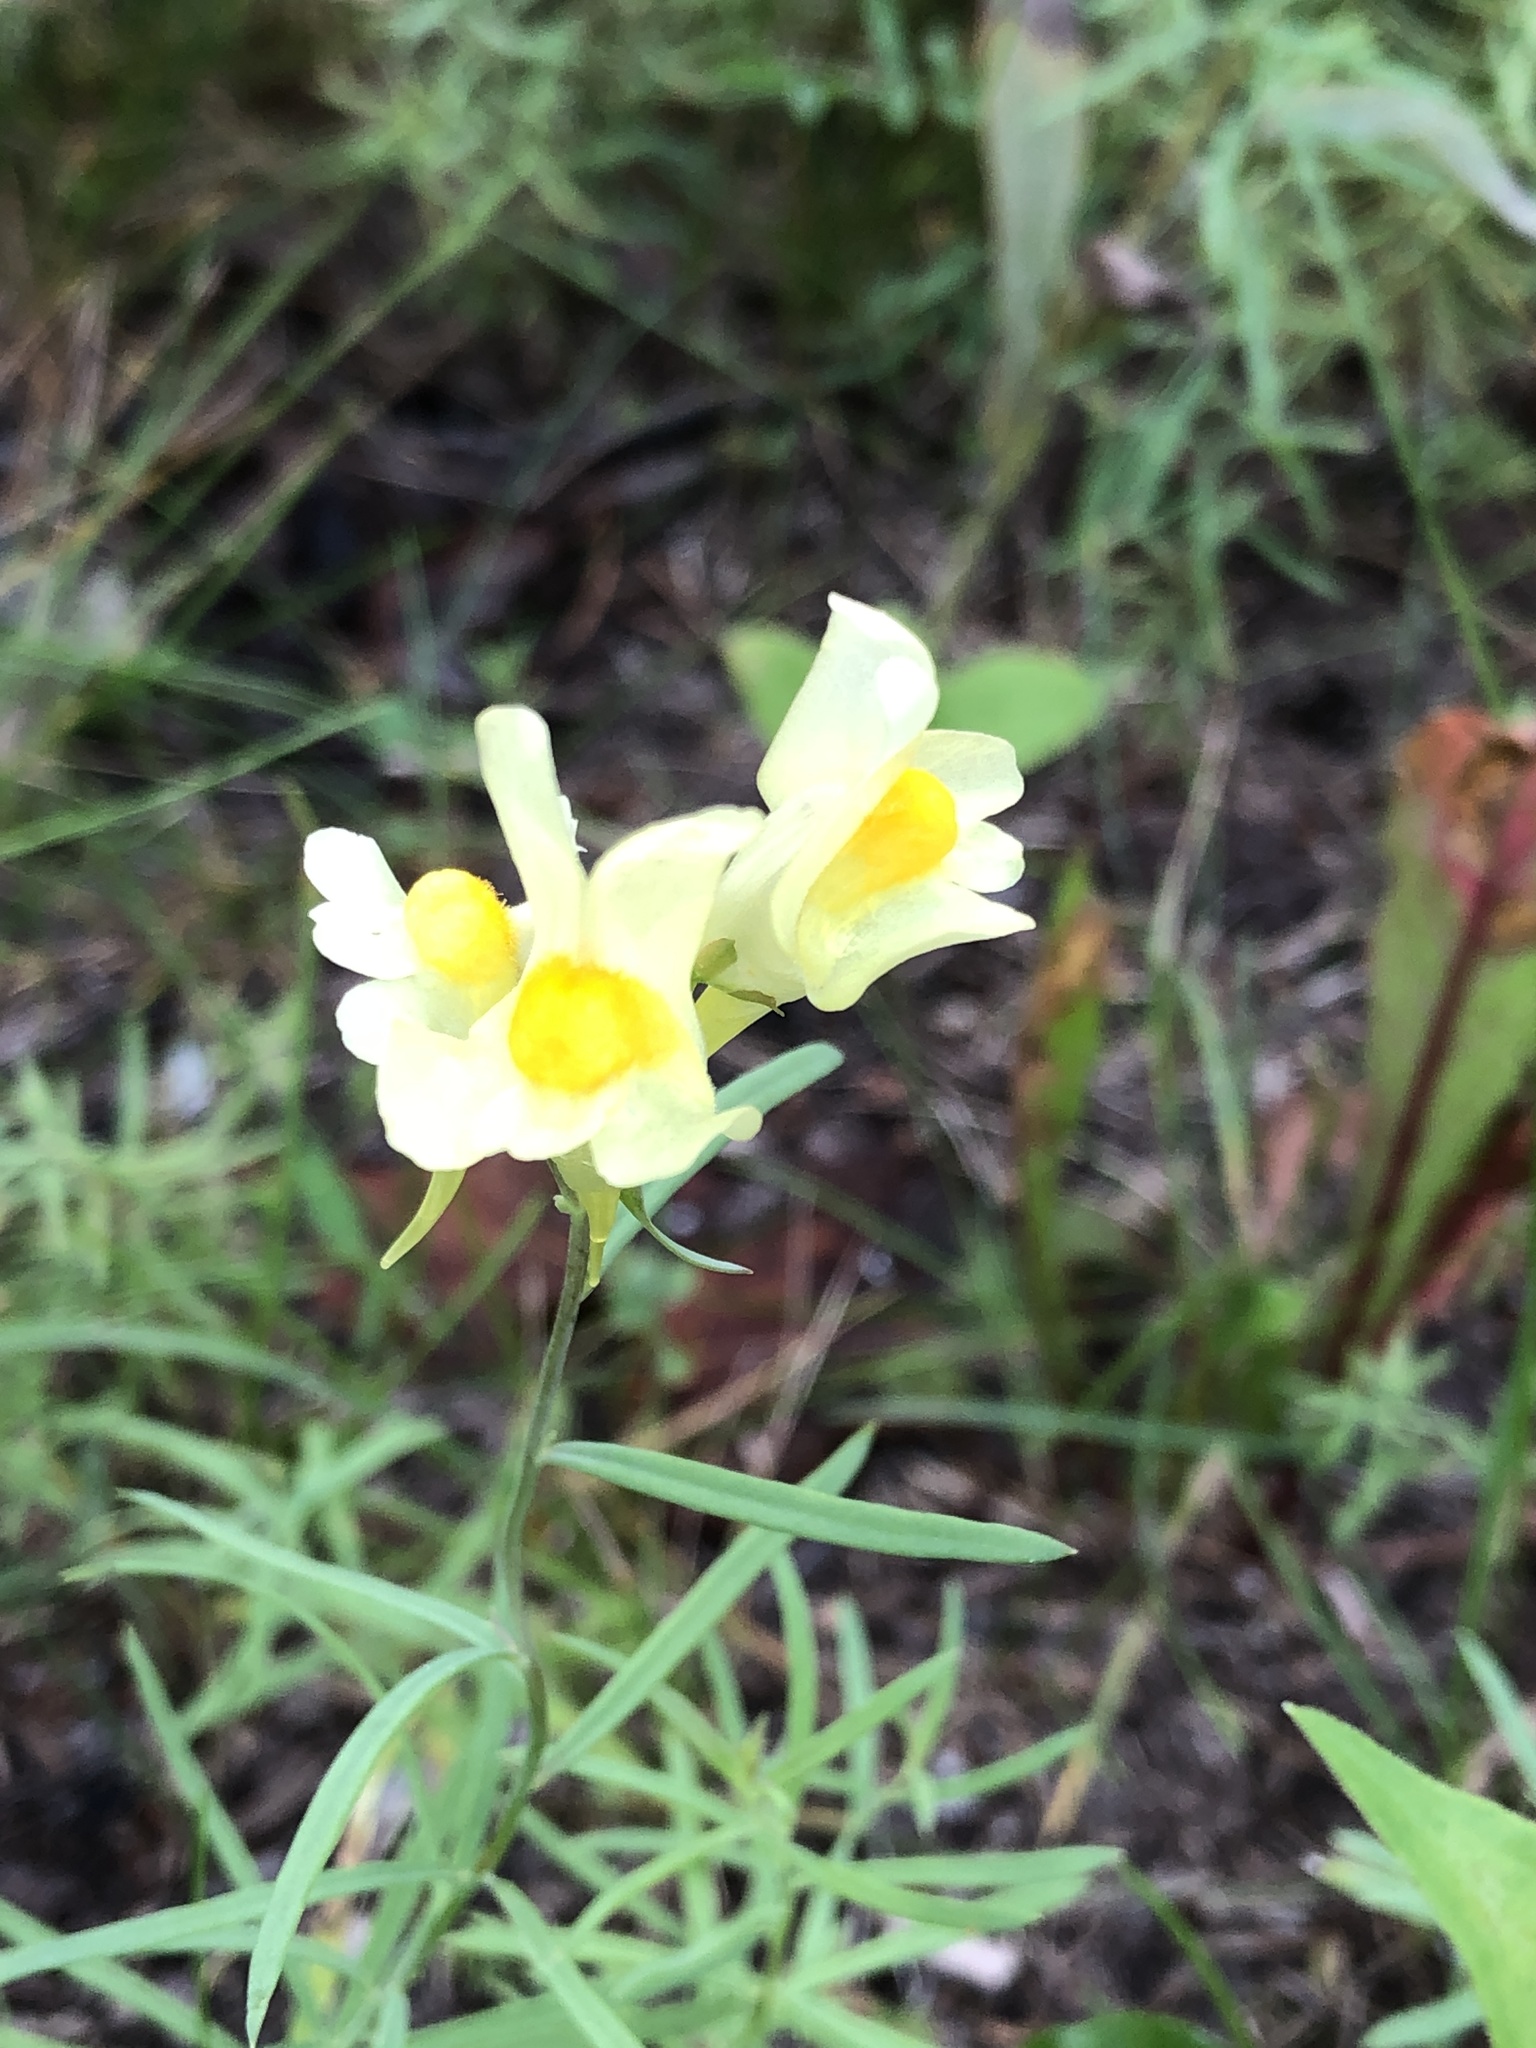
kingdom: Plantae
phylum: Tracheophyta
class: Magnoliopsida
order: Lamiales
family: Plantaginaceae
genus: Linaria
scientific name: Linaria vulgaris
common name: Butter and eggs
